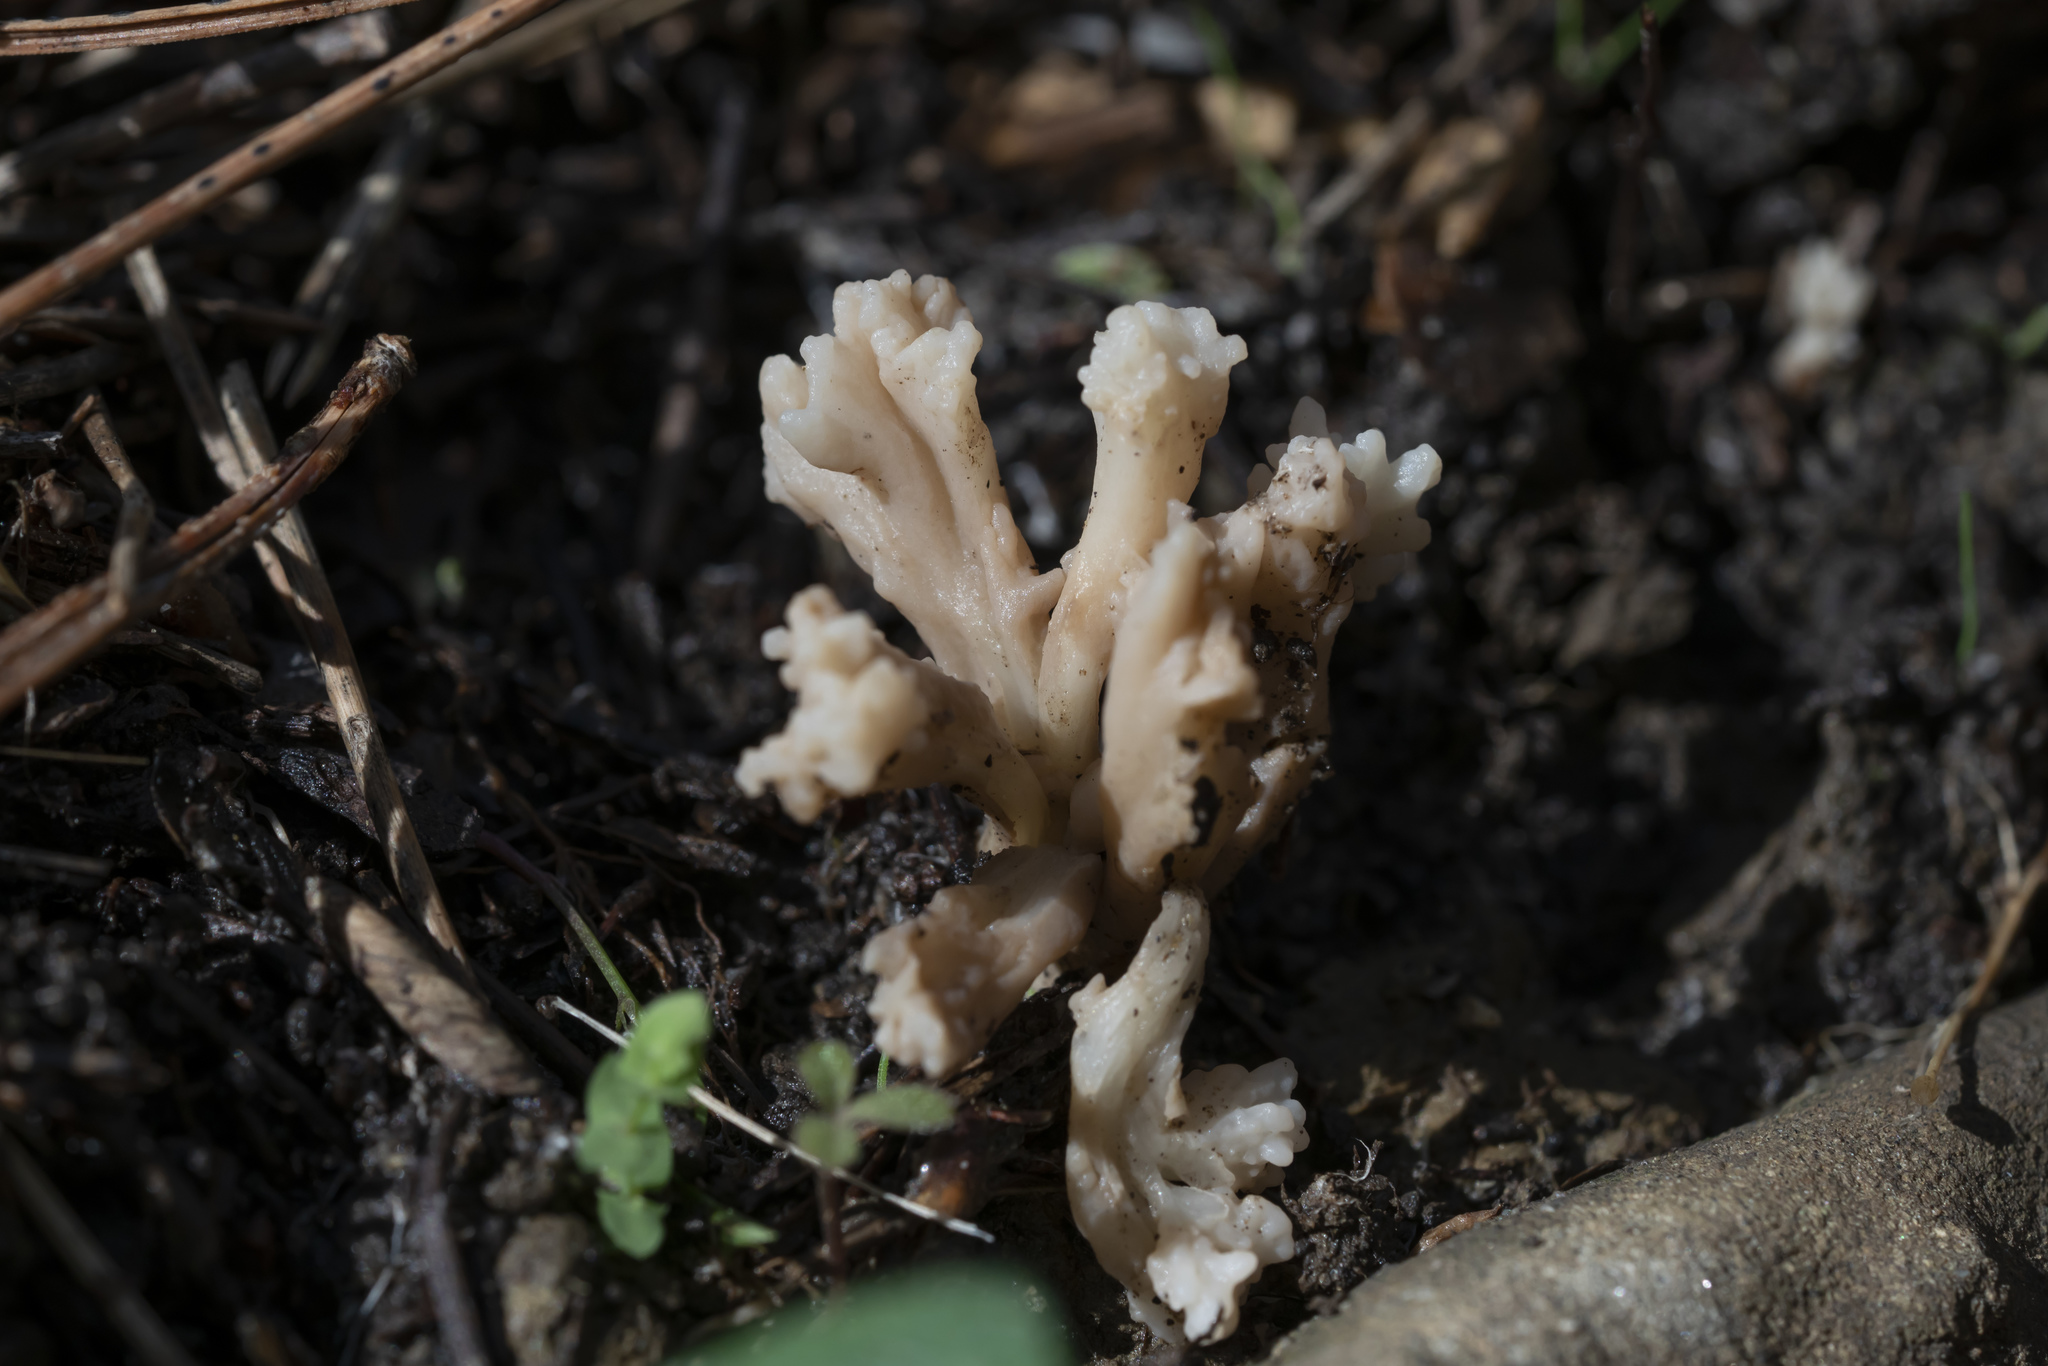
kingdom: Fungi
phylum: Basidiomycota
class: Agaricomycetes
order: Cantharellales
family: Hydnaceae
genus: Clavulina
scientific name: Clavulina coralloides
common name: Crested coral
